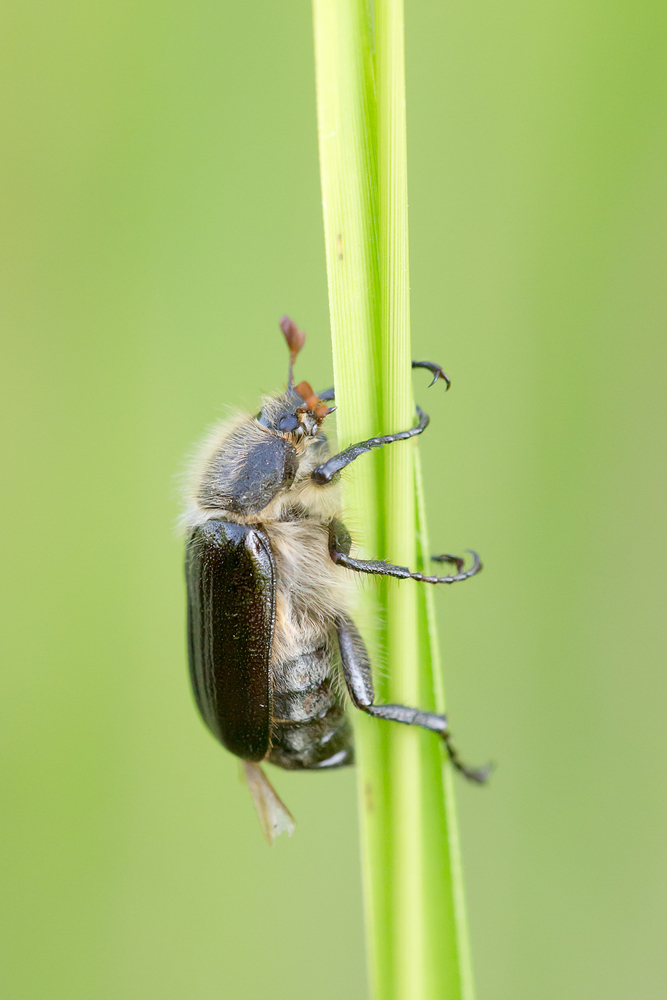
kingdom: Animalia
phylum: Arthropoda
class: Insecta
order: Coleoptera
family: Scarabaeidae
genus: Amphimallon
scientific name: Amphimallon atrum
